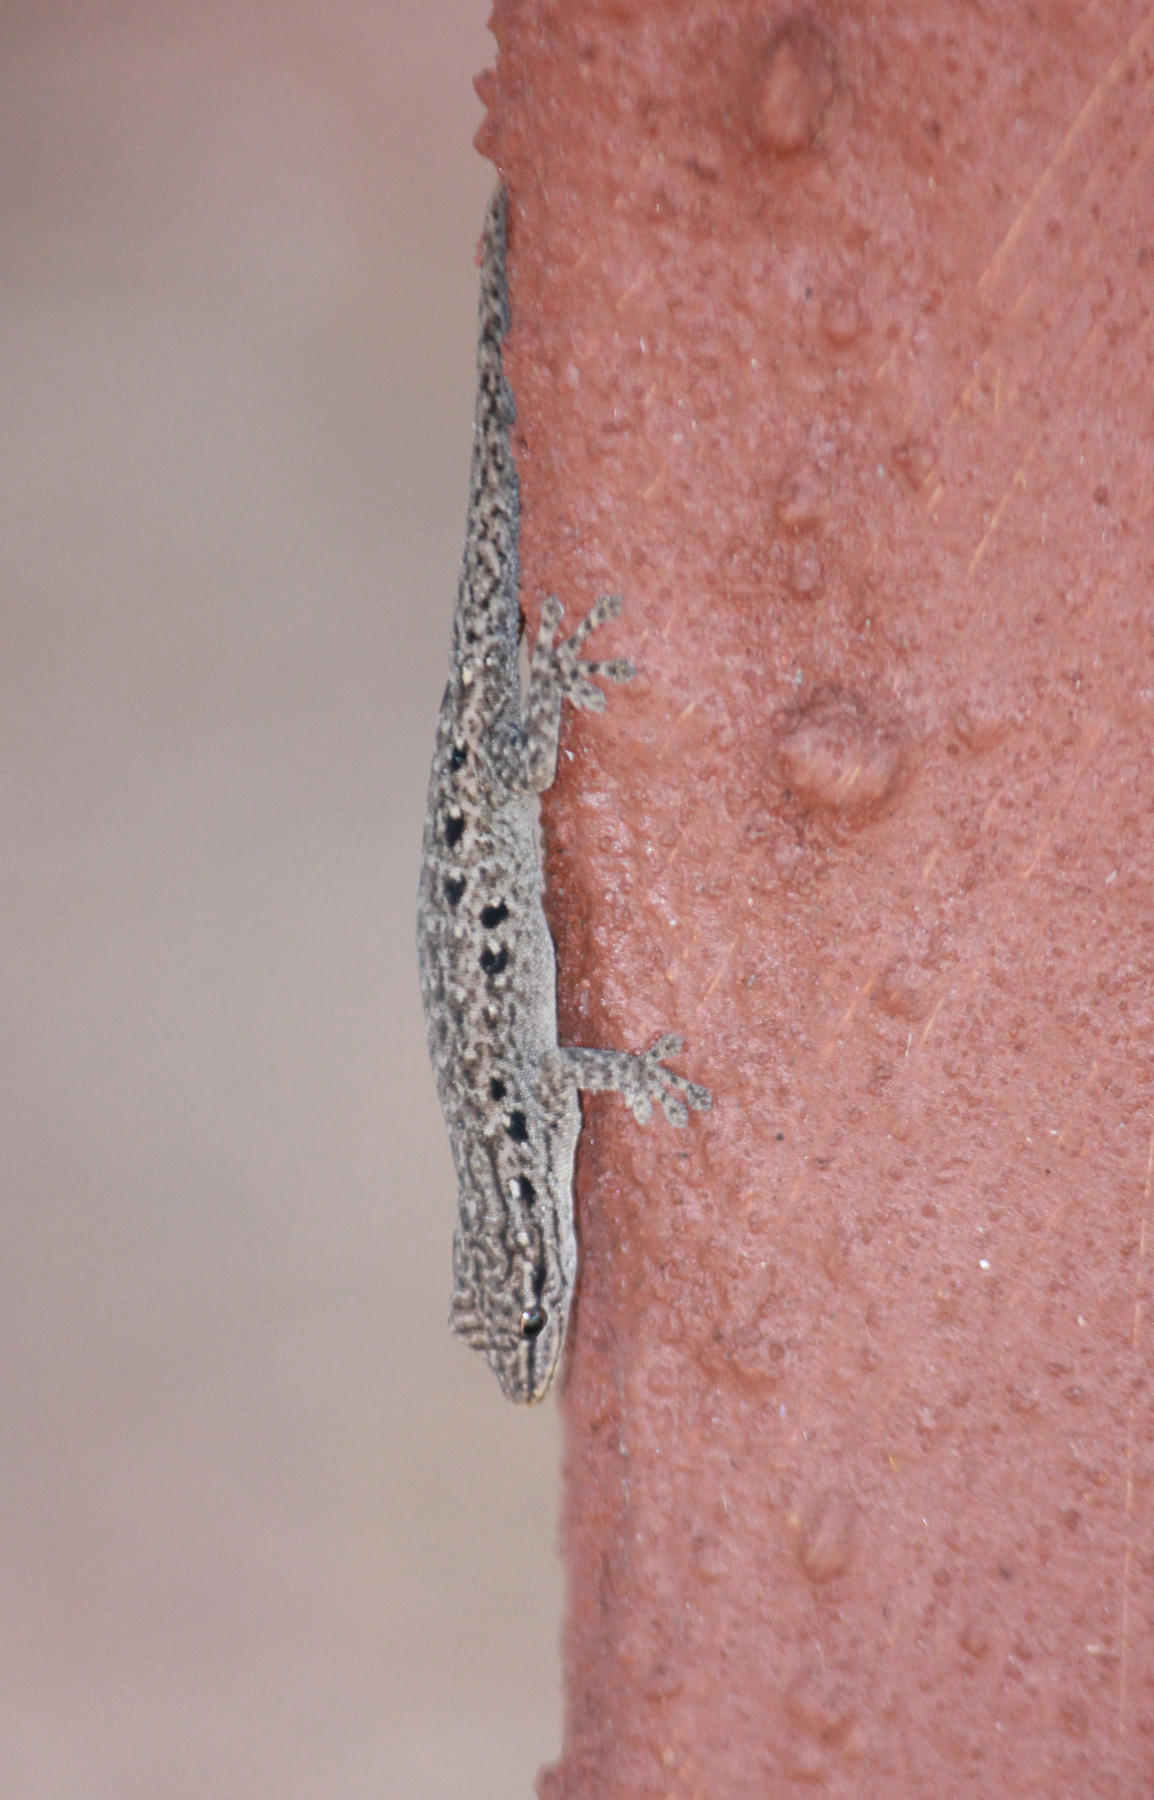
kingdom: Animalia
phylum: Chordata
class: Squamata
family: Gekkonidae
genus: Lygodactylus
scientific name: Lygodactylus incognitus
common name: Cryptic dwarf gecko
